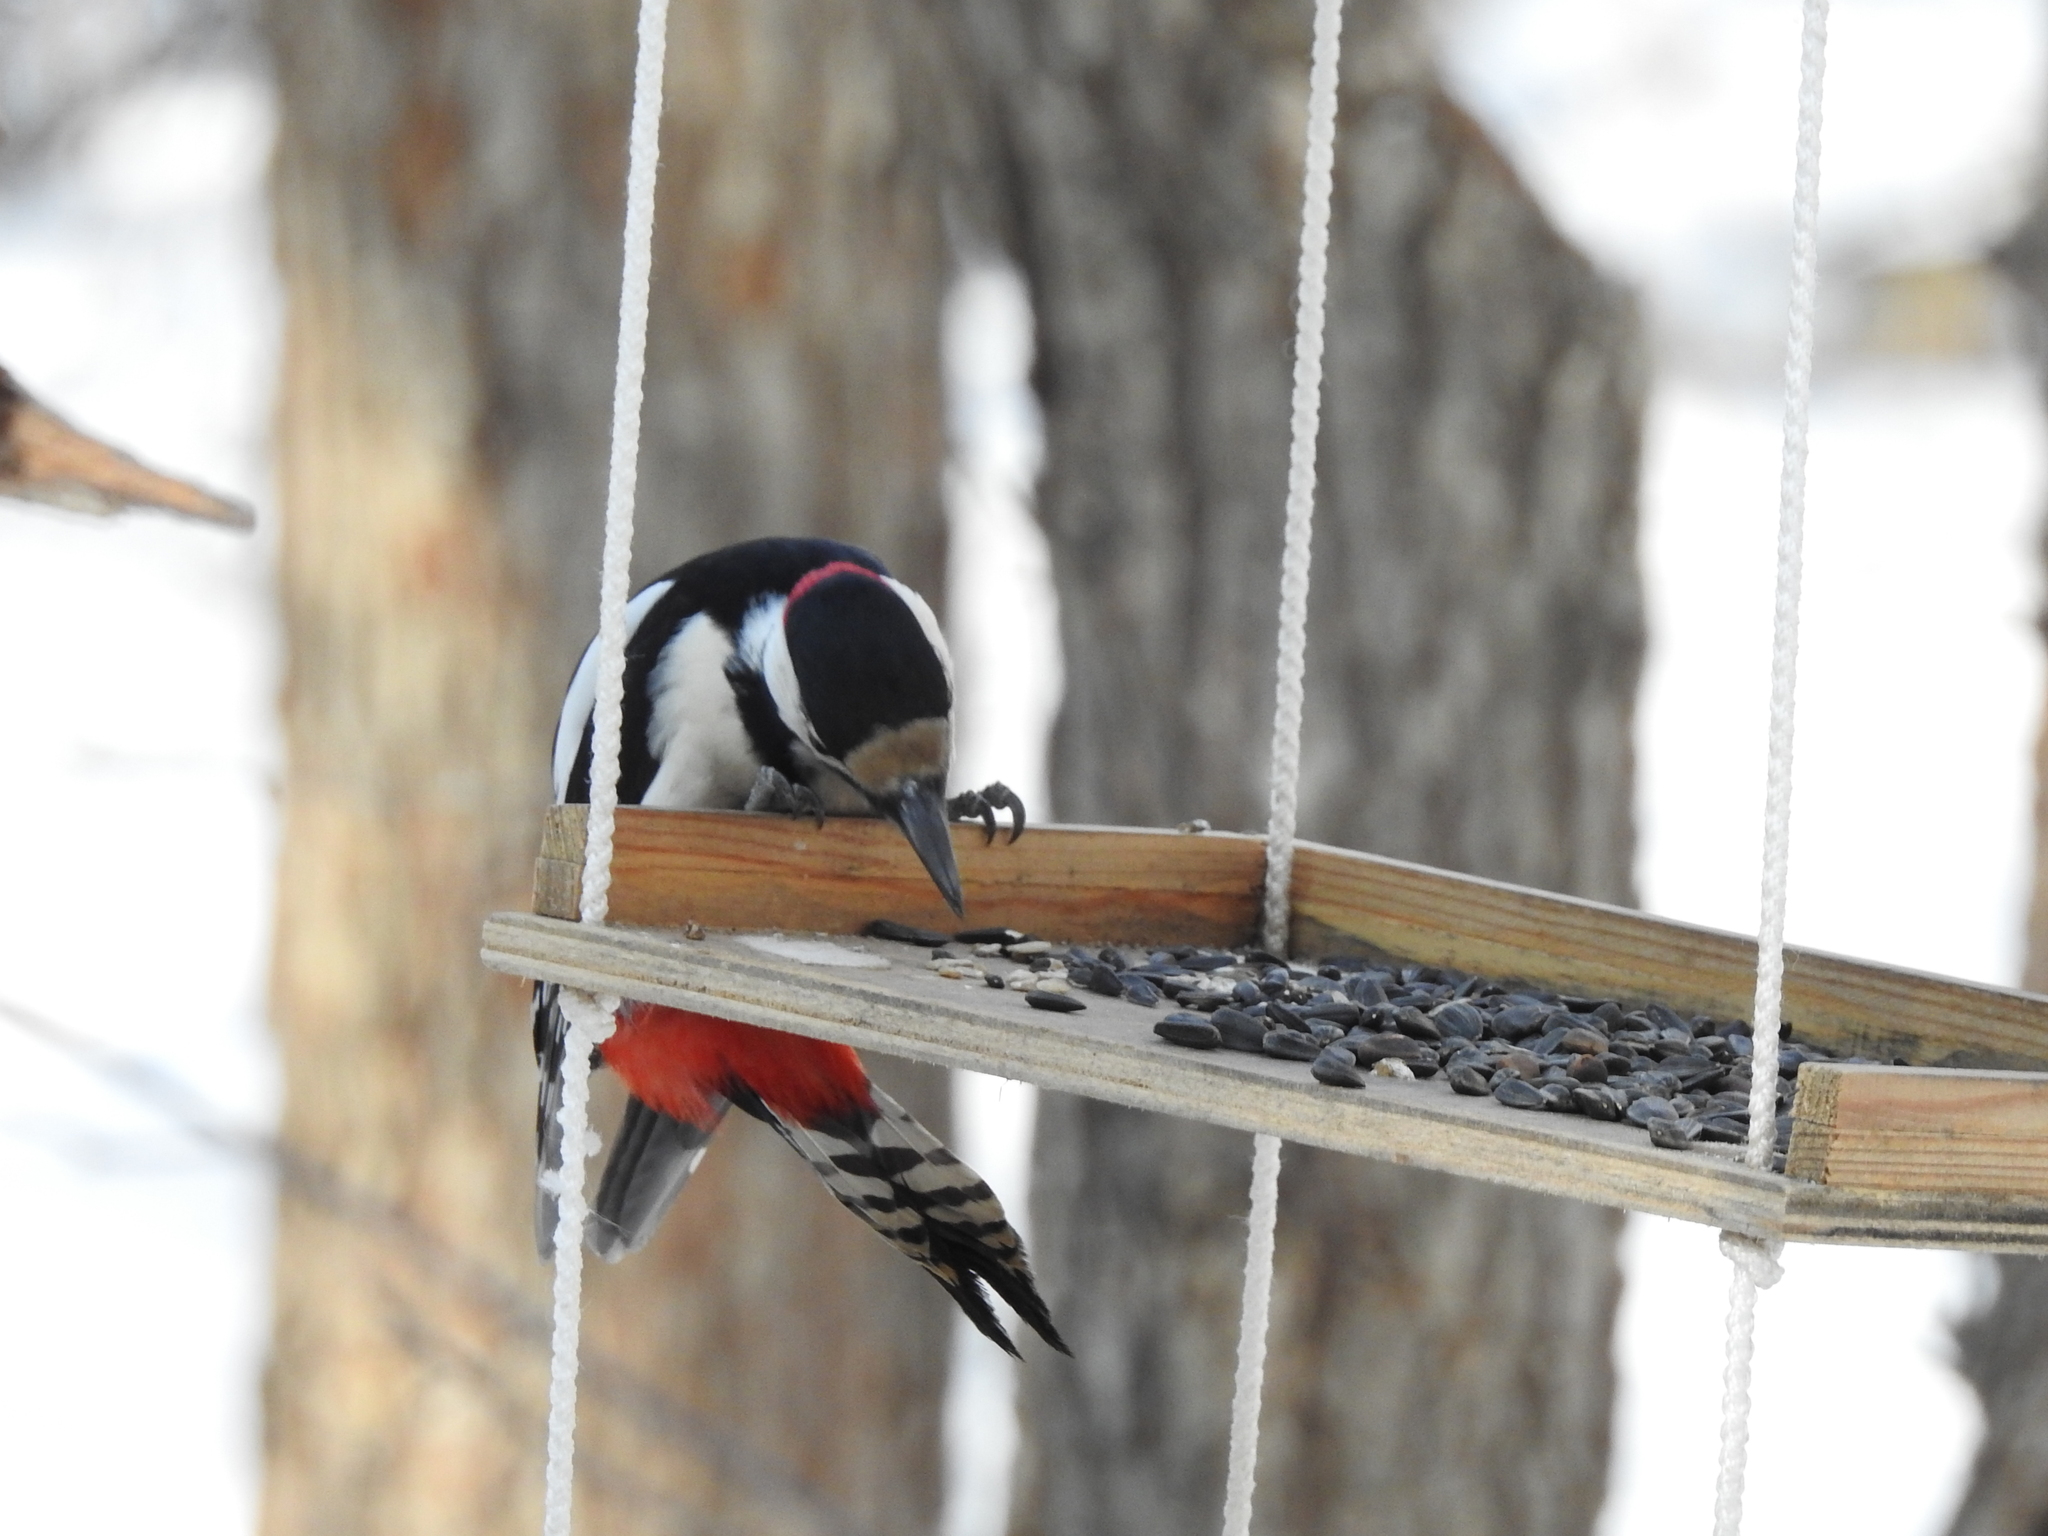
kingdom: Animalia
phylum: Chordata
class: Aves
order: Piciformes
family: Picidae
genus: Dendrocopos
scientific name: Dendrocopos major
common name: Great spotted woodpecker
